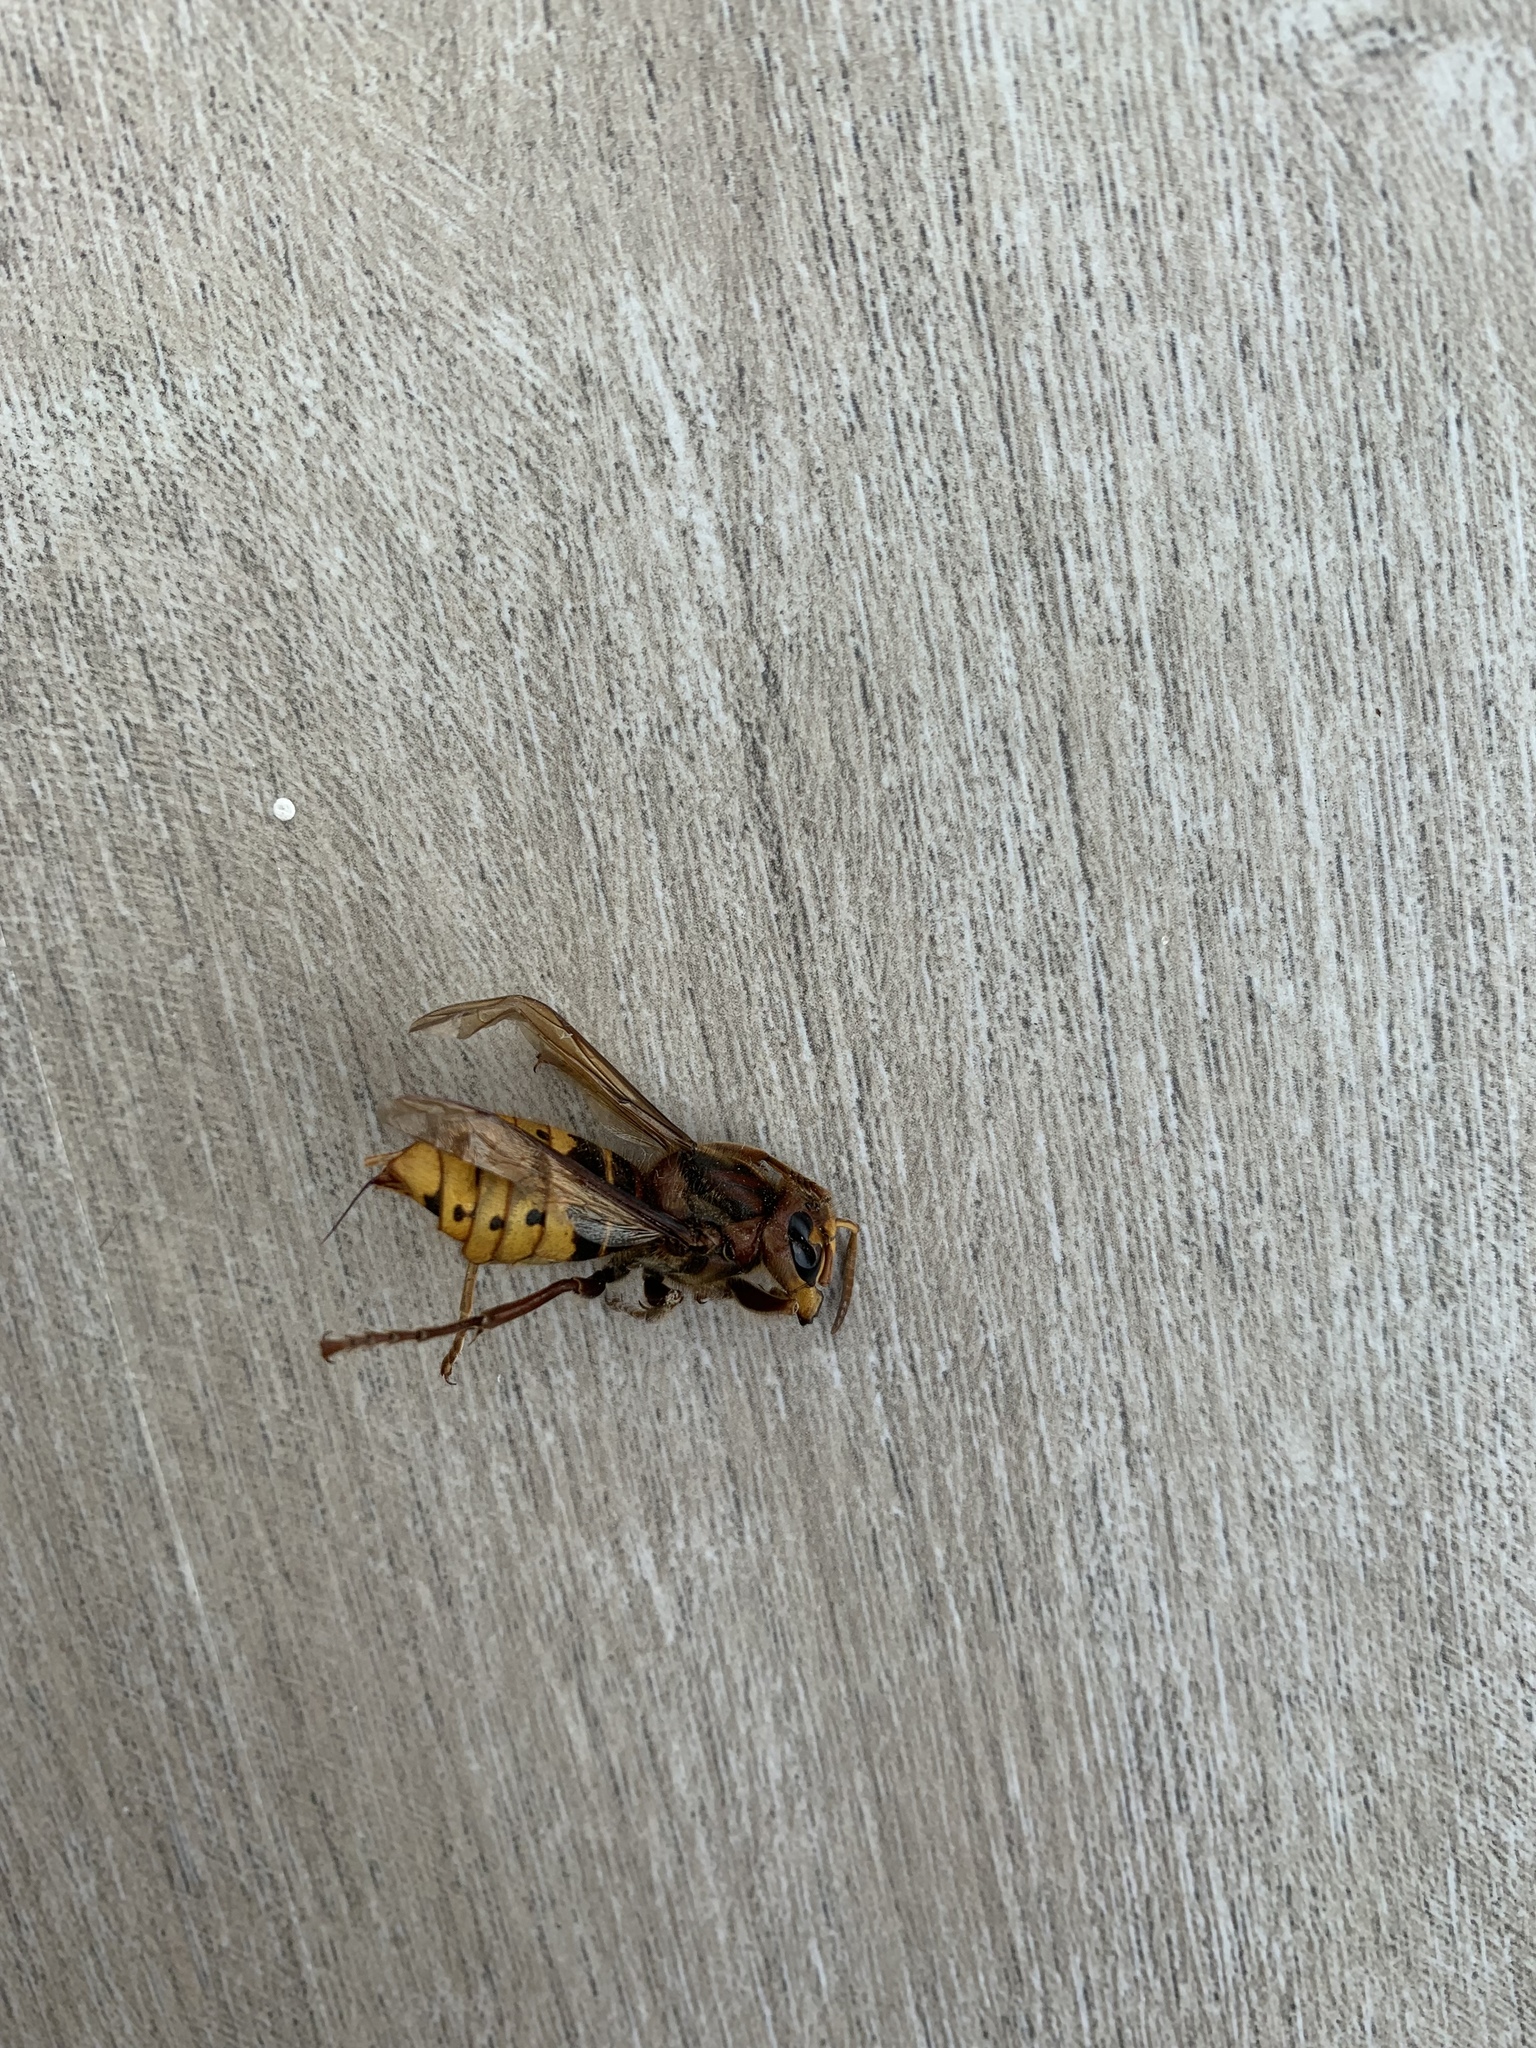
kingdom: Animalia
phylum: Arthropoda
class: Insecta
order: Hymenoptera
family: Vespidae
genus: Vespa
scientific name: Vespa crabro
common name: Hornet
